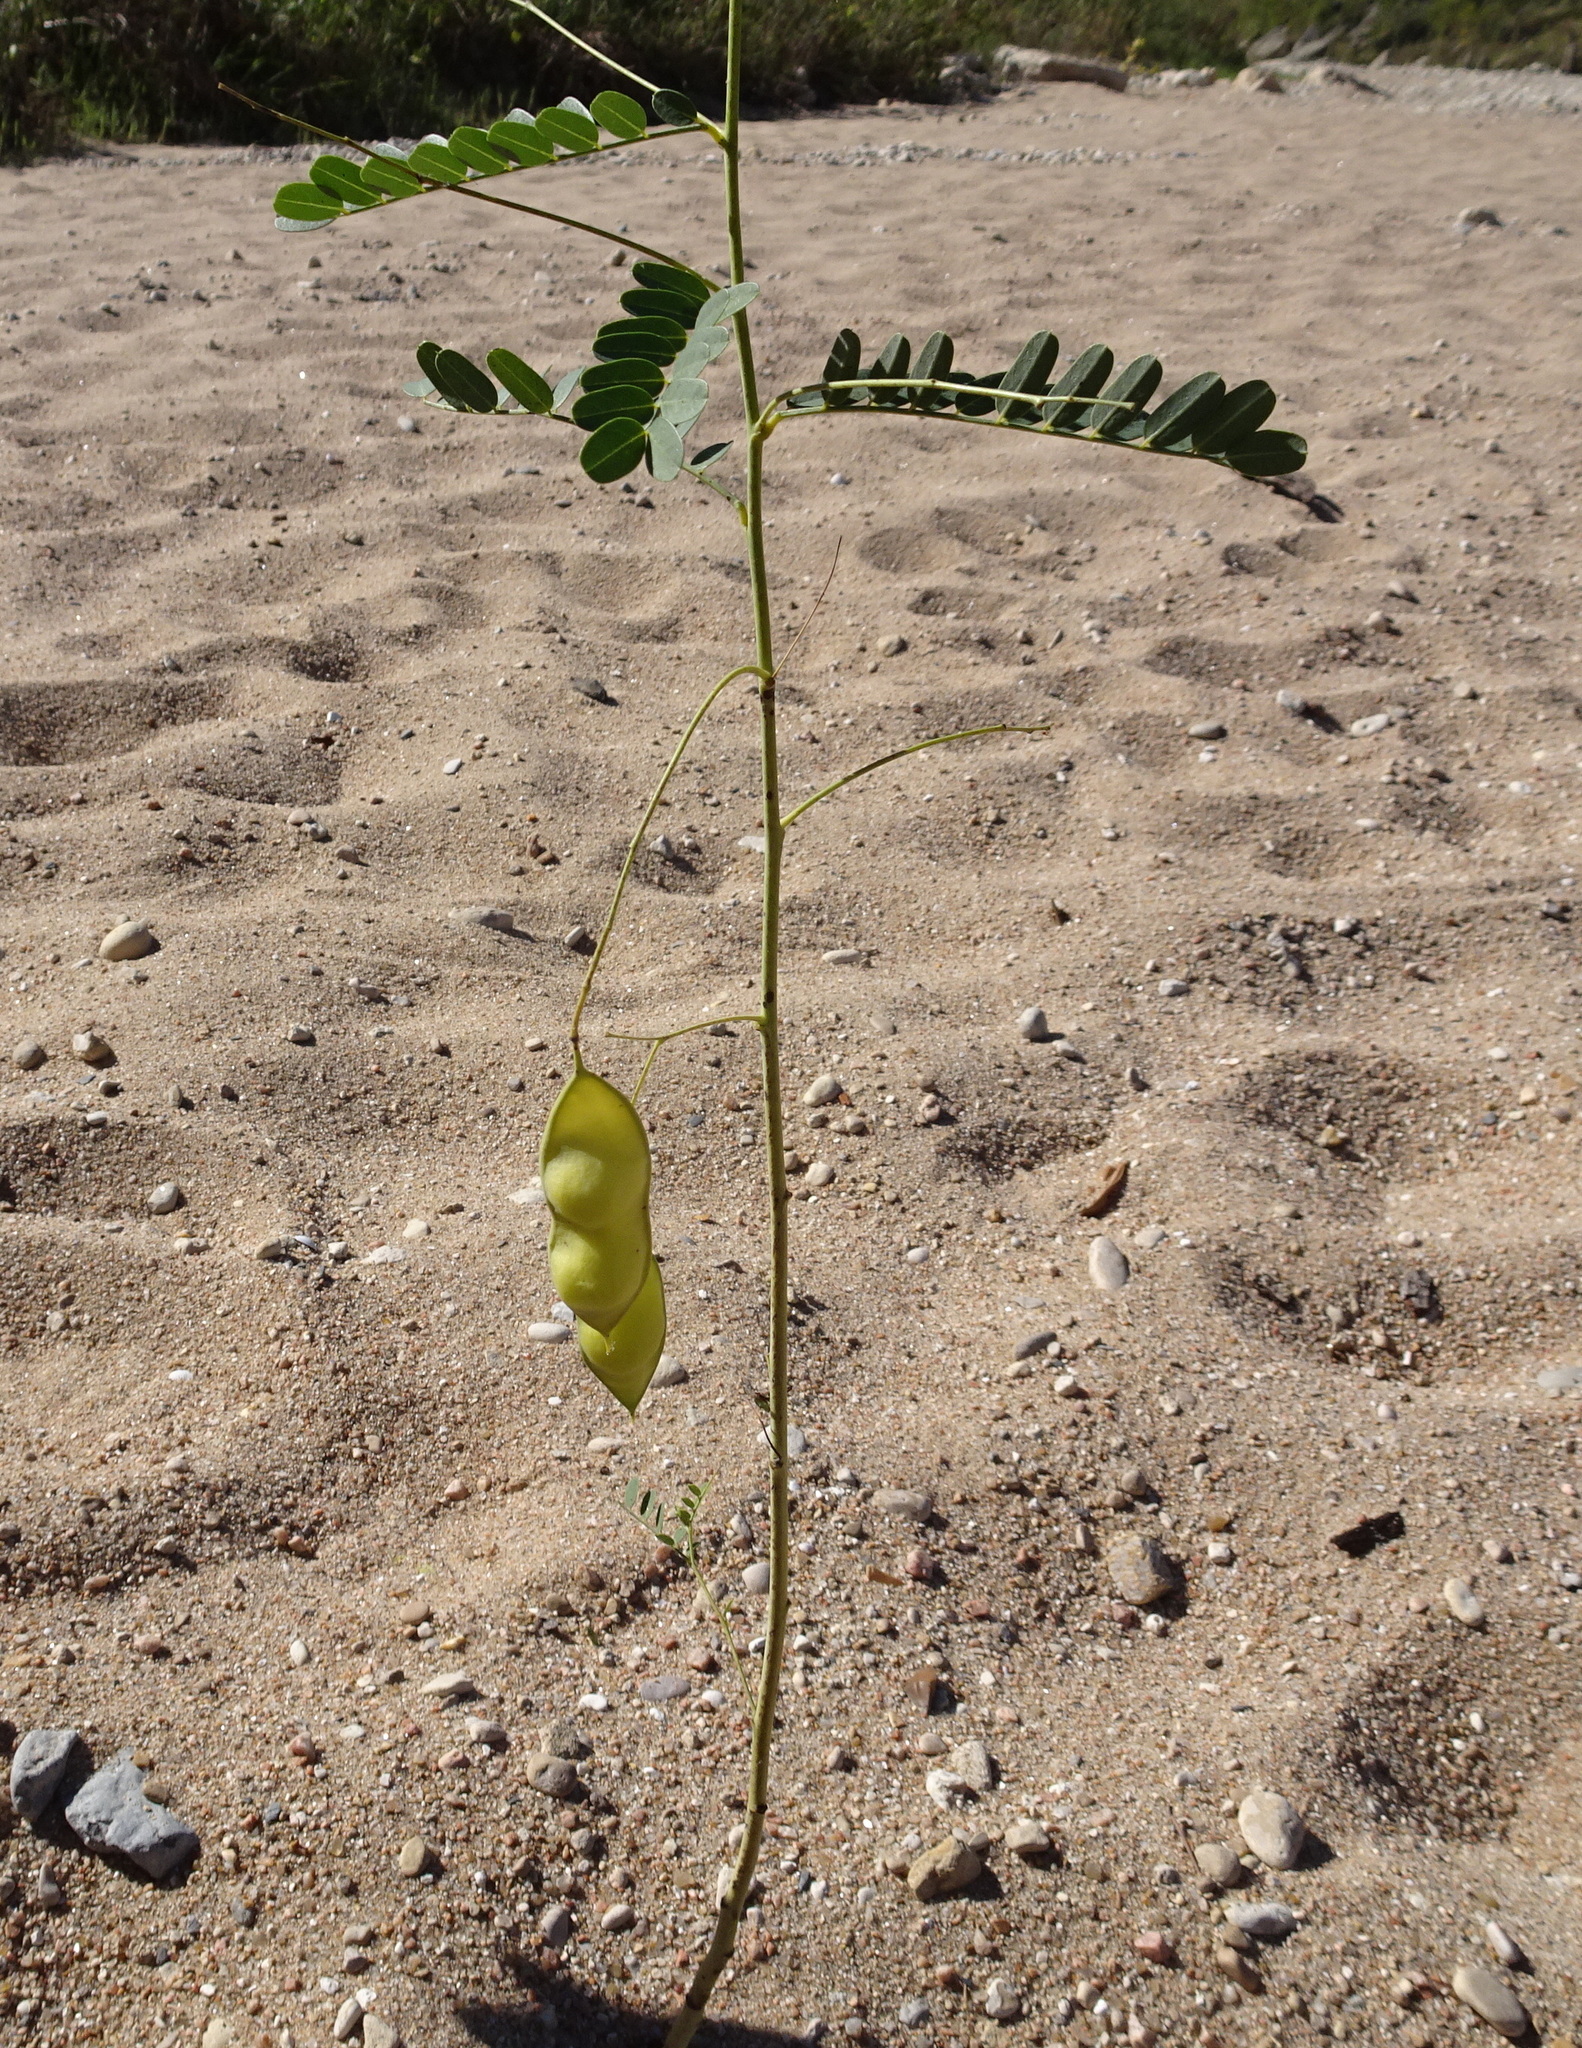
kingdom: Plantae
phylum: Tracheophyta
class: Magnoliopsida
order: Fabales
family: Fabaceae
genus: Sesbania
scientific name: Sesbania vesicaria
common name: Bagpod
